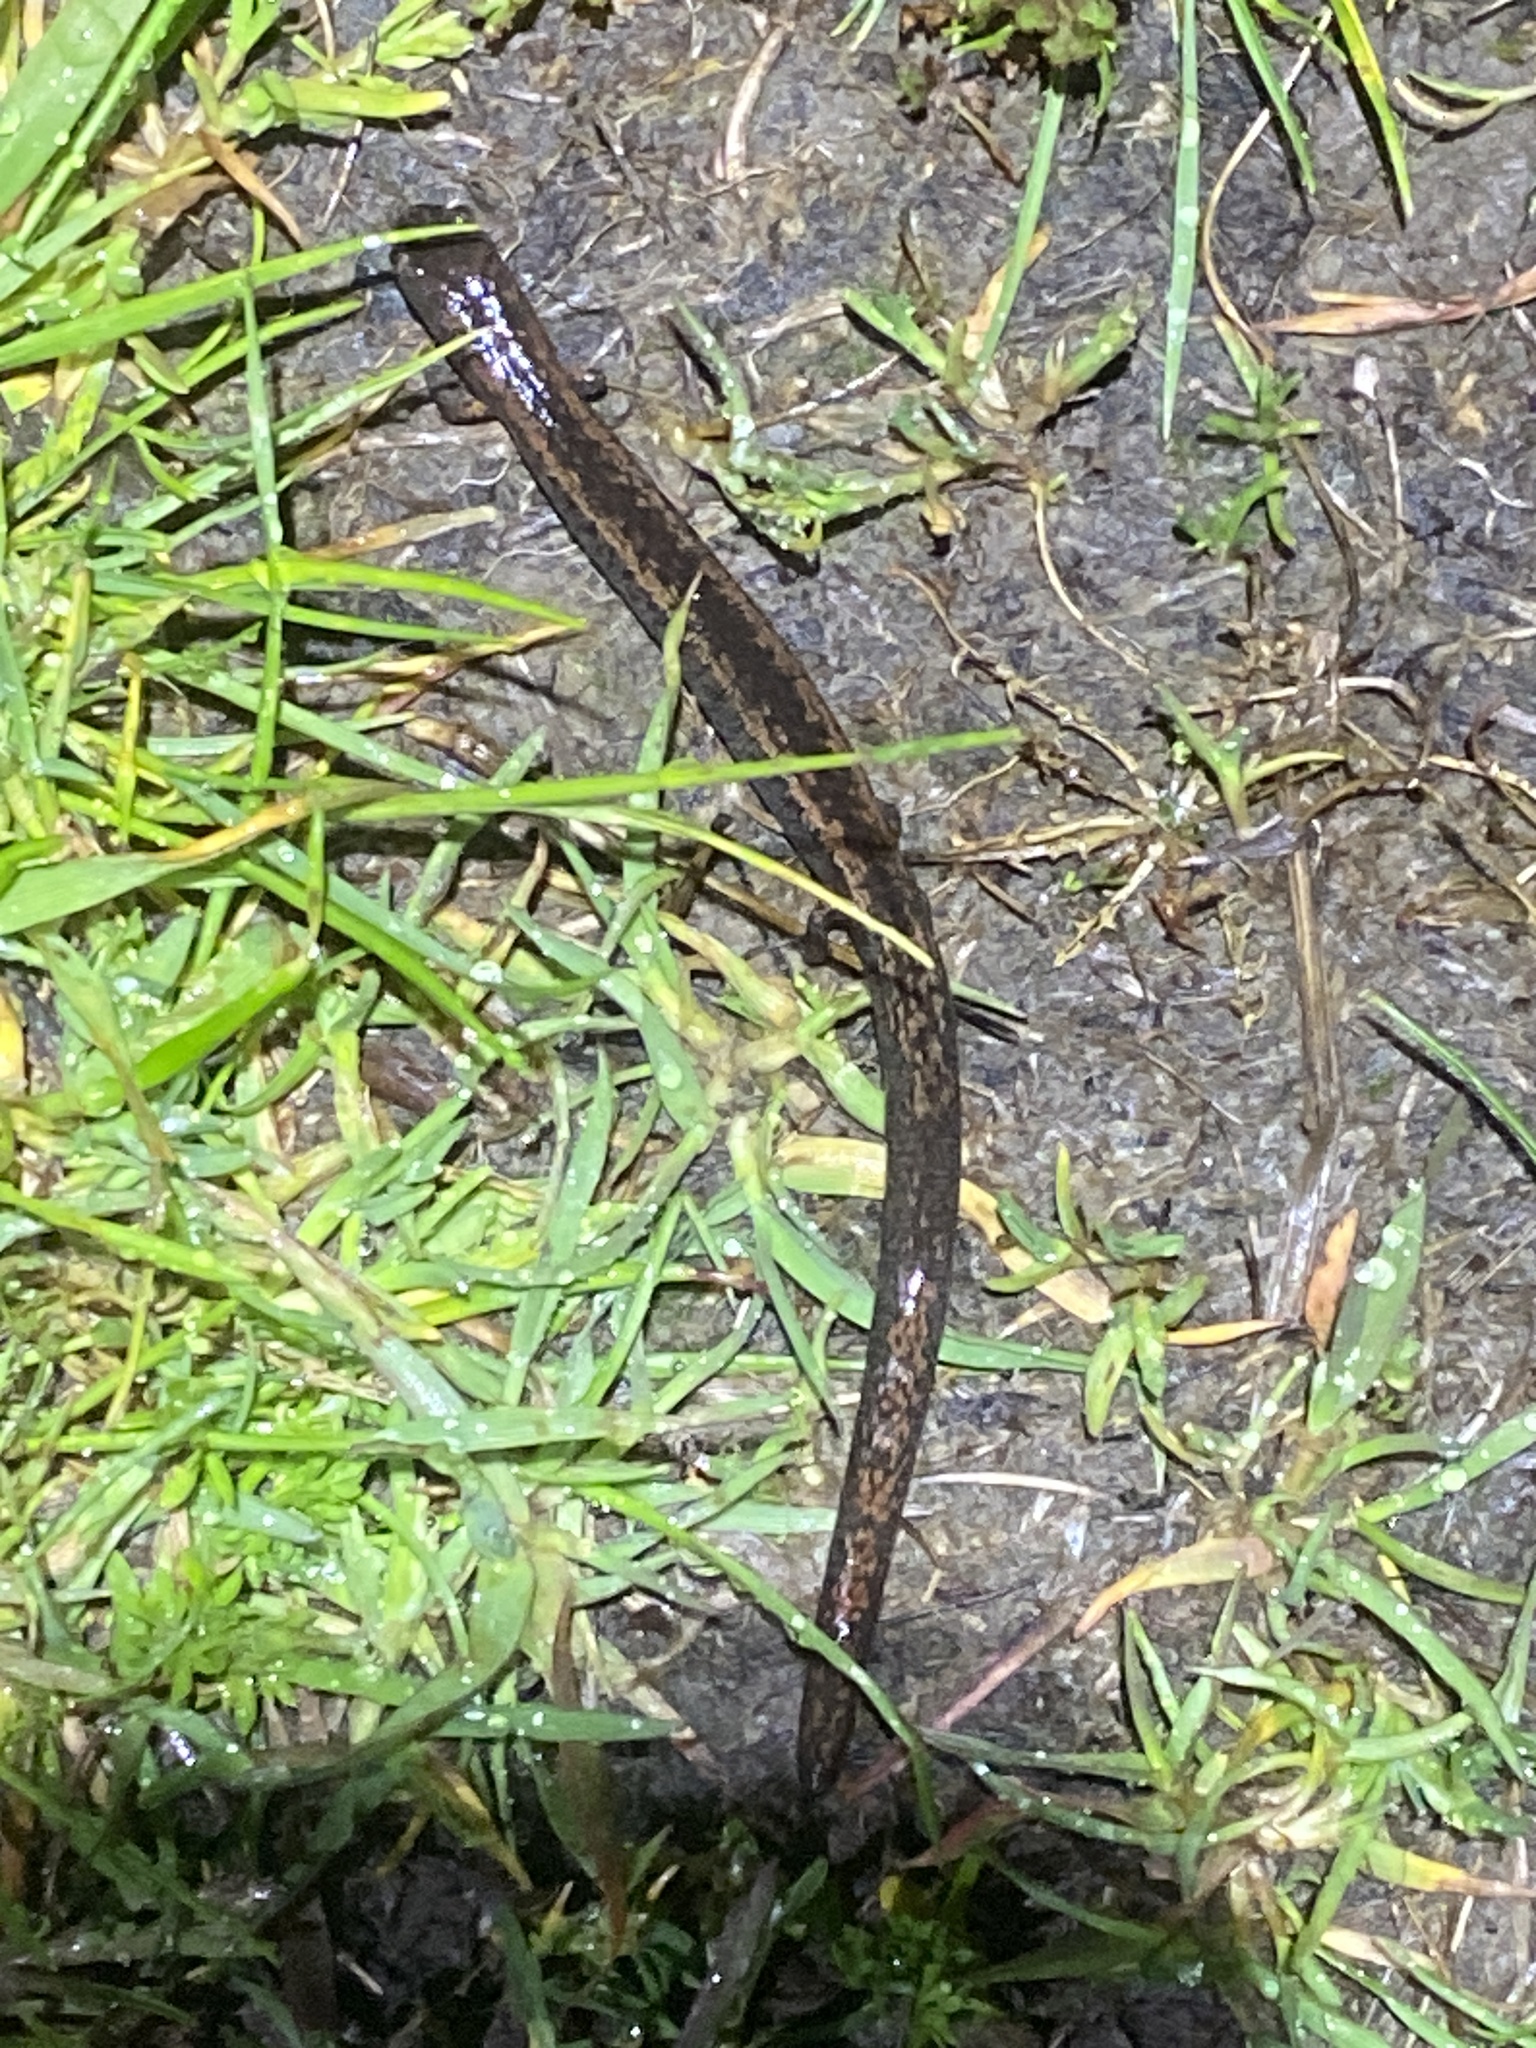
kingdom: Animalia
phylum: Chordata
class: Amphibia
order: Caudata
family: Plethodontidae
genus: Batrachoseps
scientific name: Batrachoseps attenuatus
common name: California slender salamander
